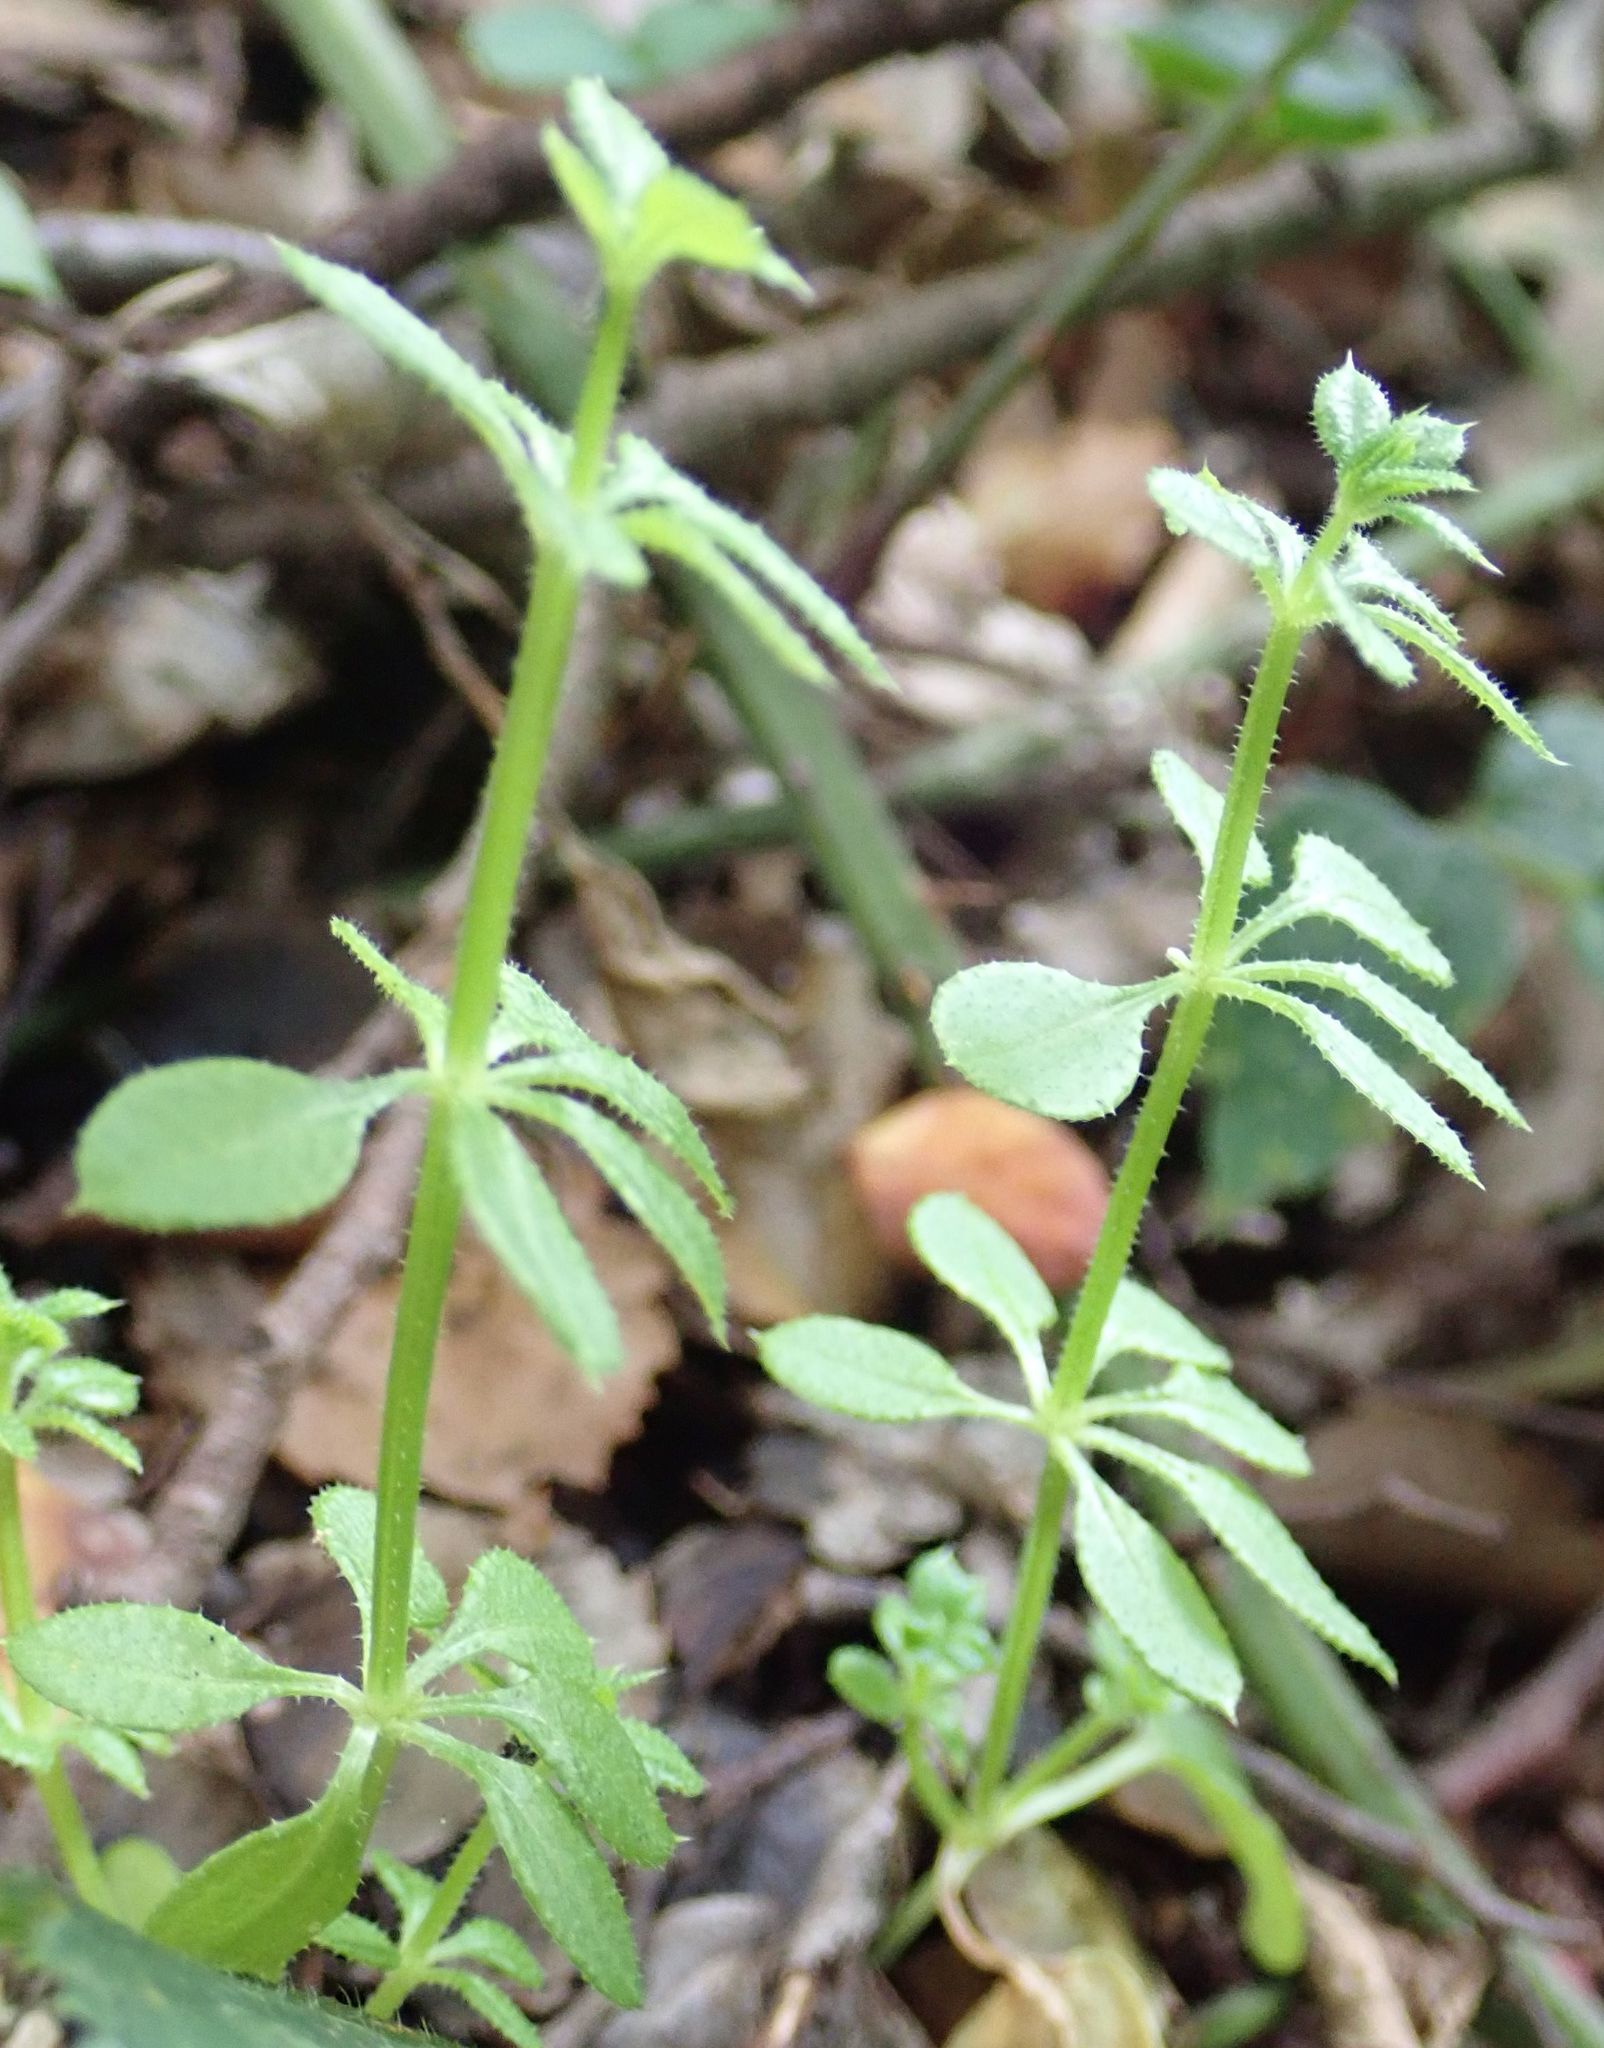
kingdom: Plantae
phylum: Tracheophyta
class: Magnoliopsida
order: Gentianales
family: Rubiaceae
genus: Galium
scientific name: Galium aparine
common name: Cleavers
